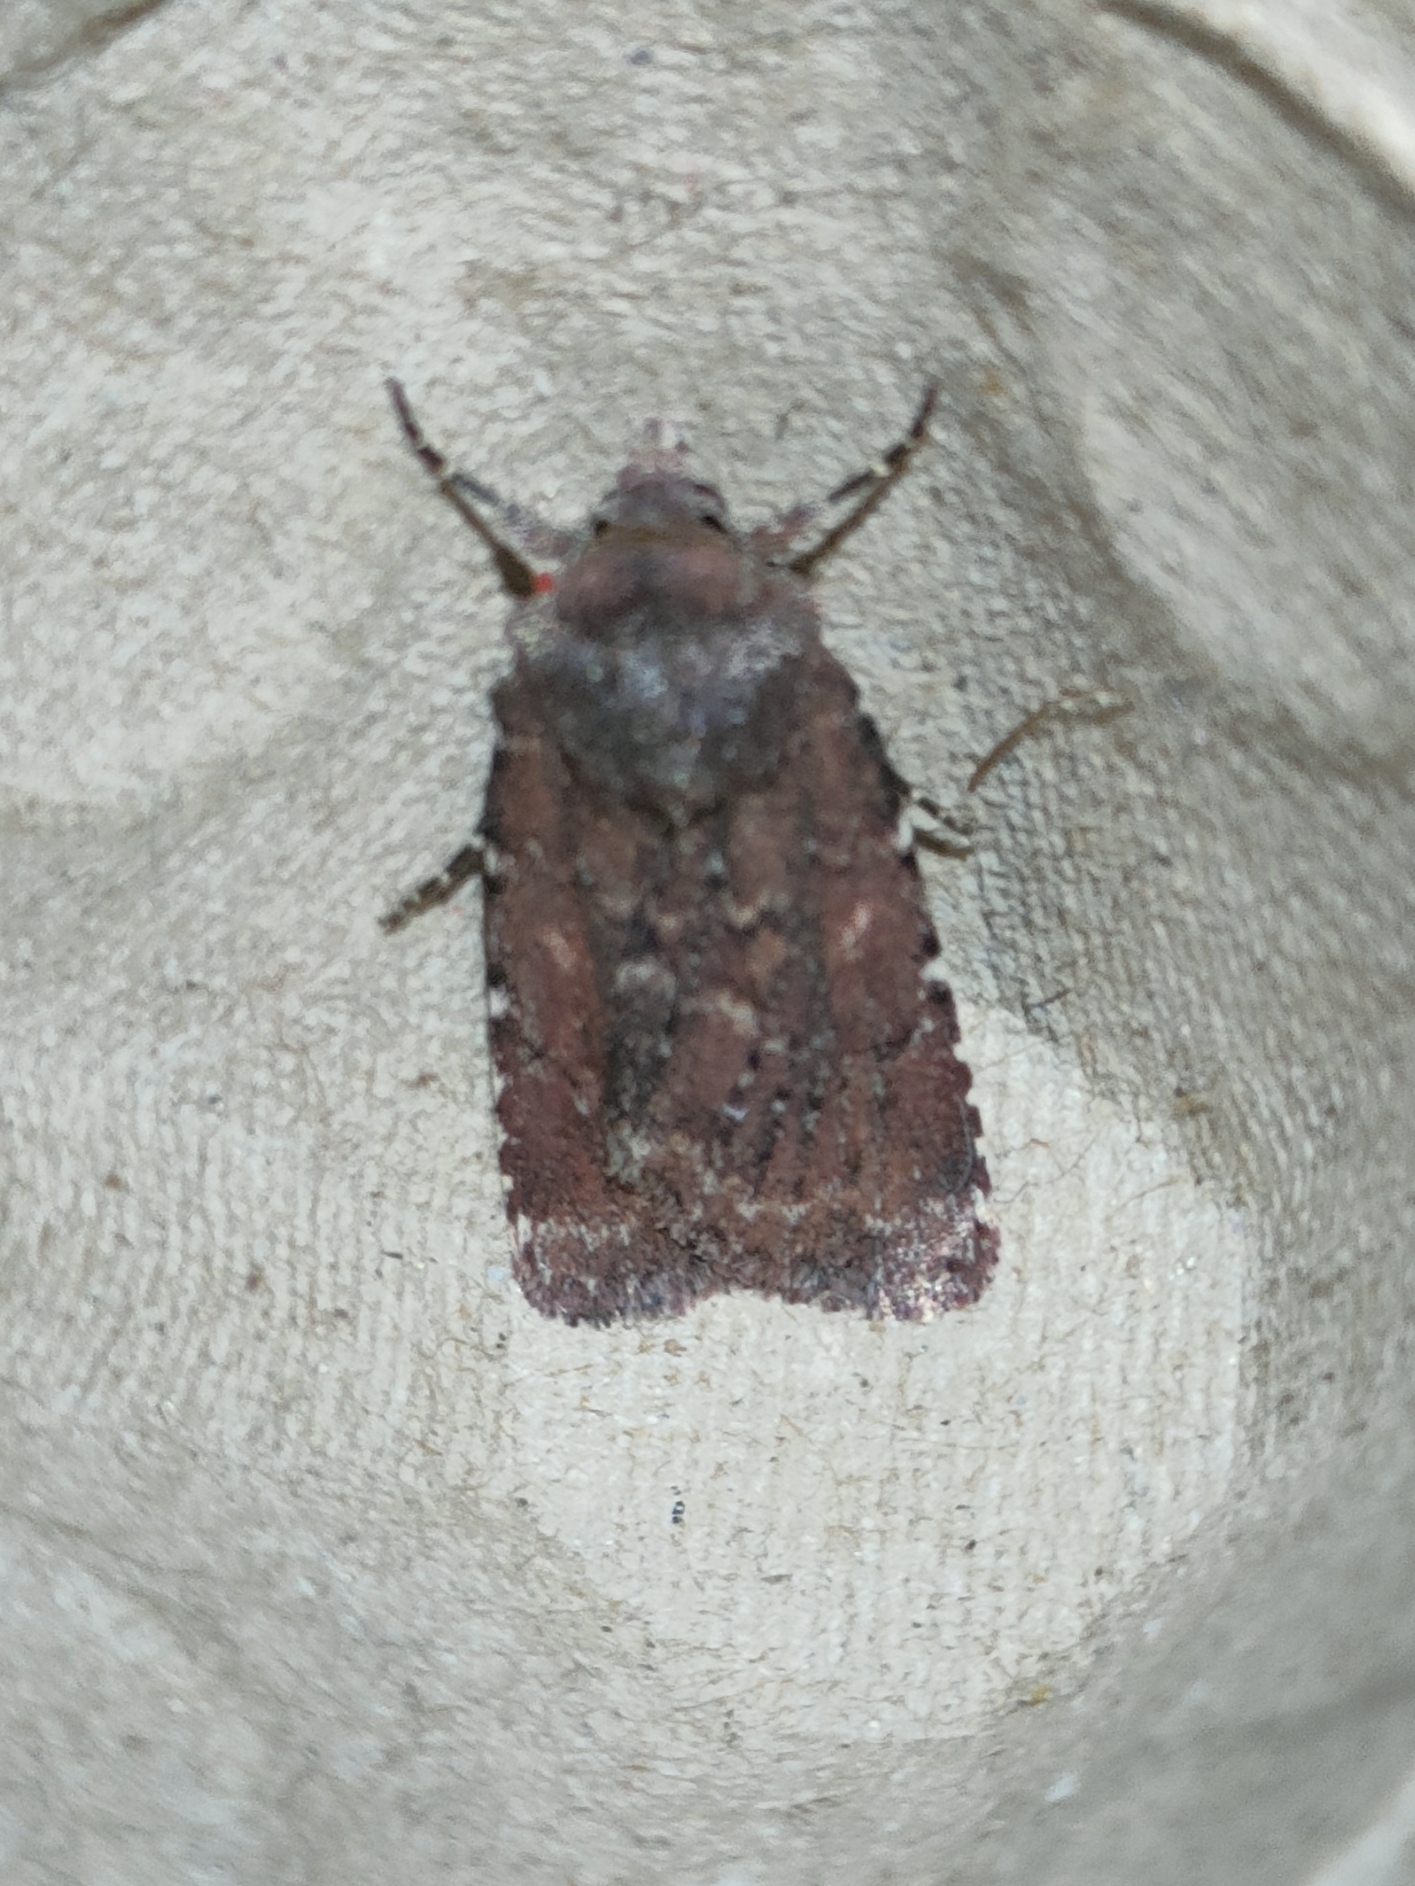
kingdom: Animalia
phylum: Arthropoda
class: Insecta
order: Lepidoptera
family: Noctuidae
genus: Lycophotia
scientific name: Lycophotia erythrina
